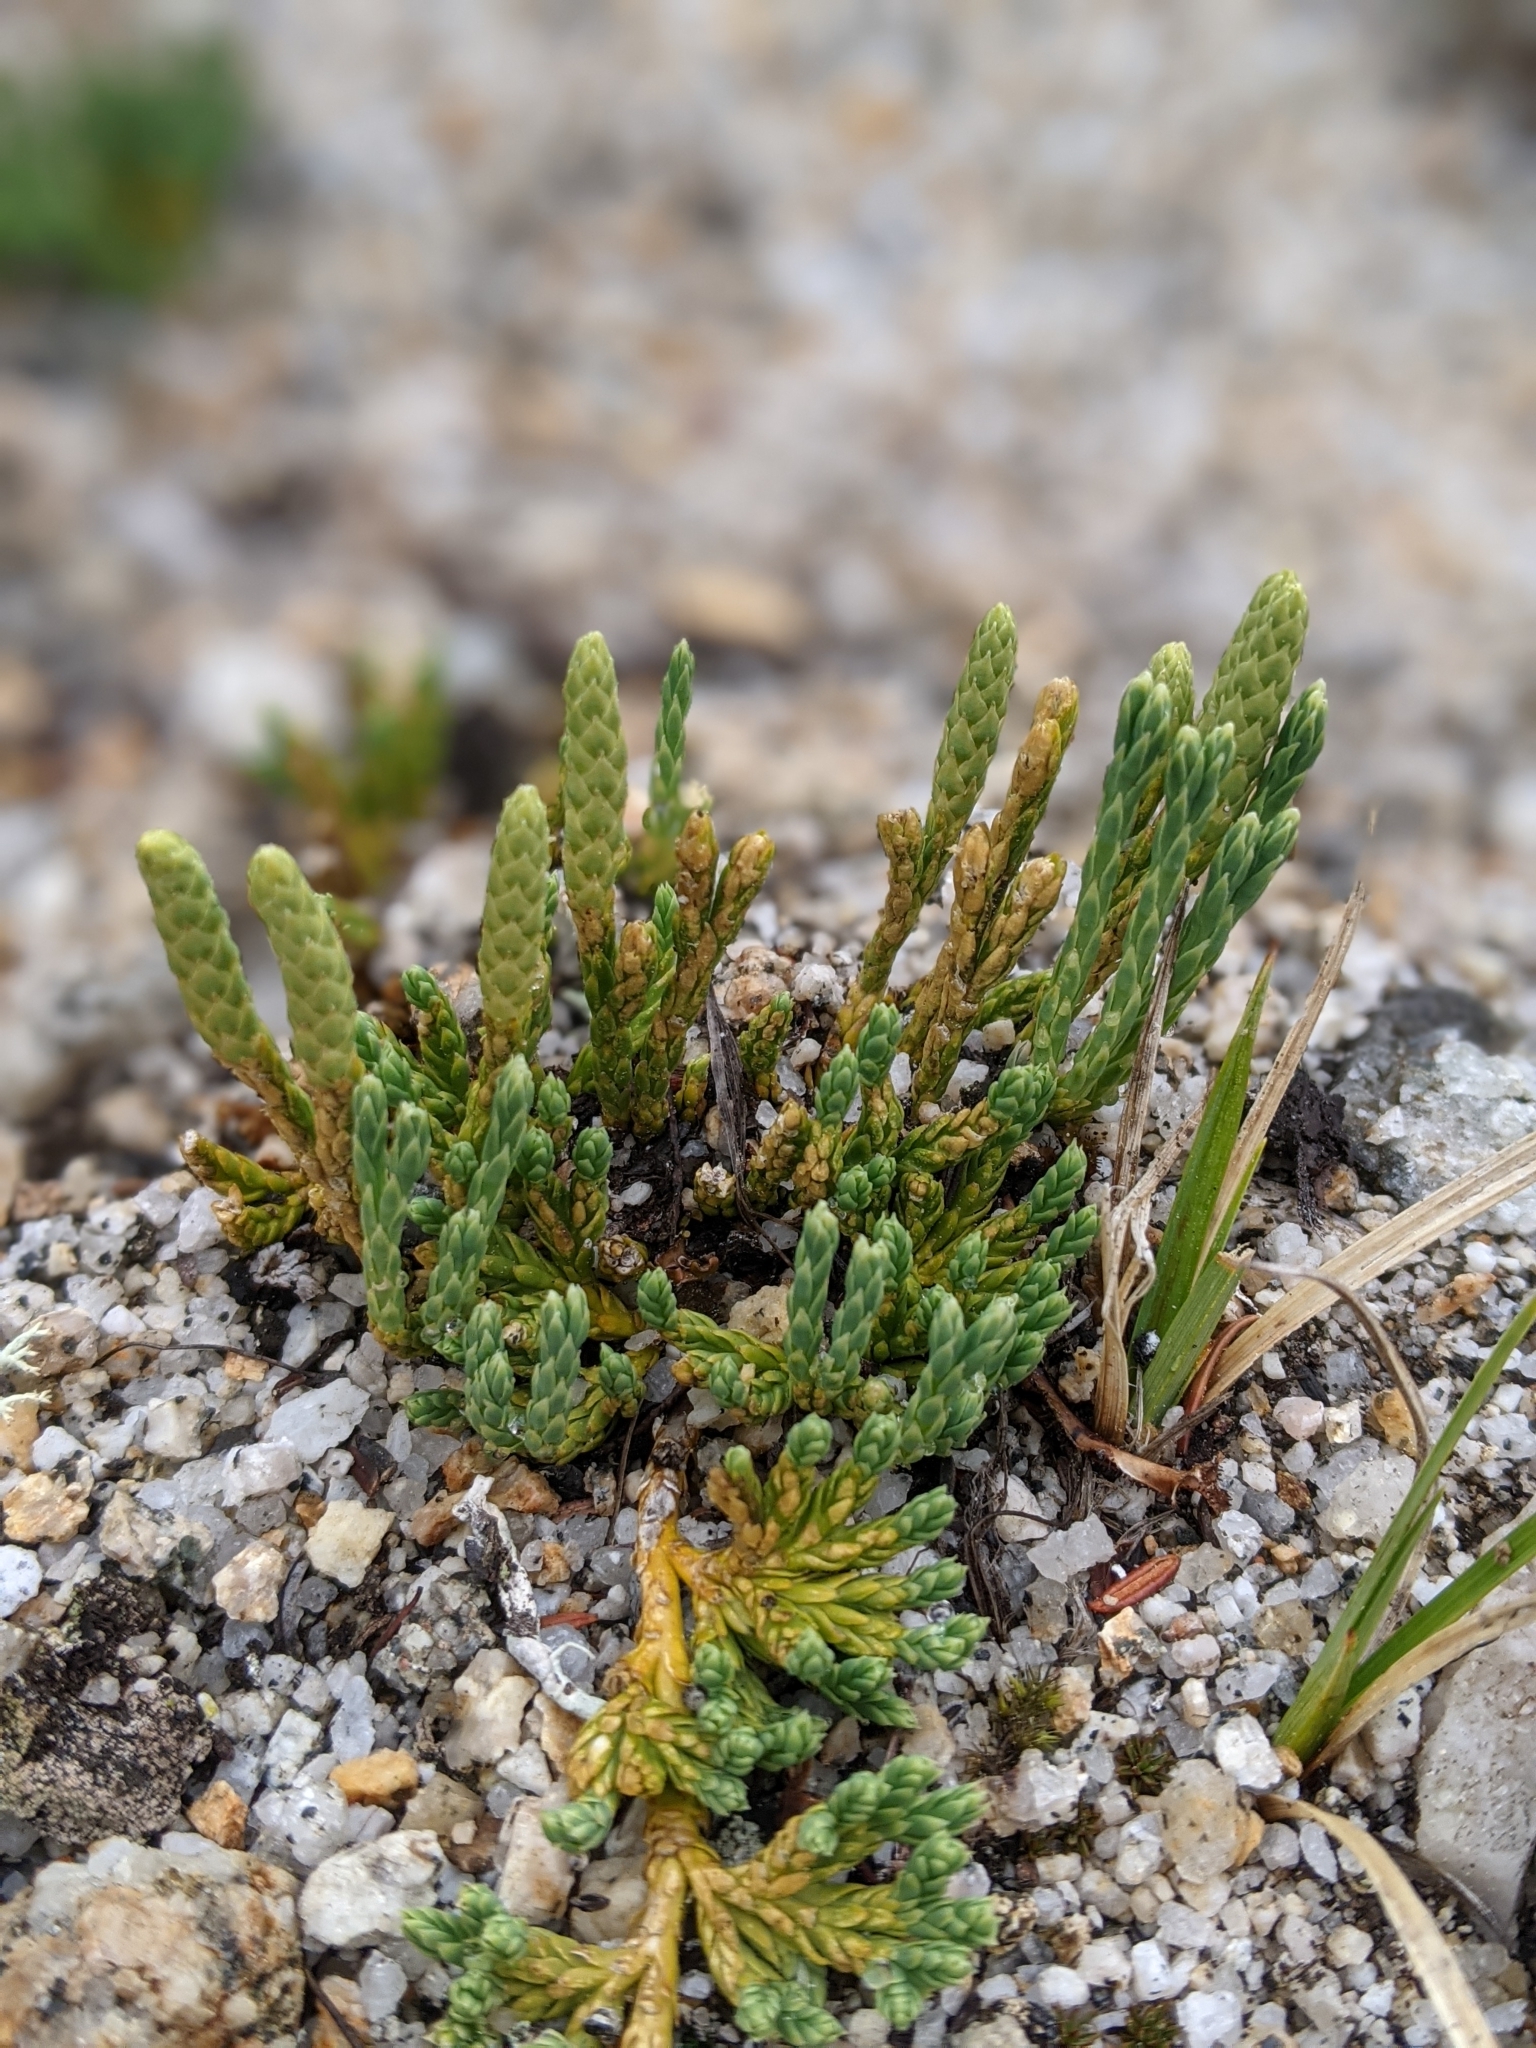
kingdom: Plantae
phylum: Tracheophyta
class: Lycopodiopsida
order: Lycopodiales
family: Lycopodiaceae
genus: Diphasiastrum
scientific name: Diphasiastrum alpinum
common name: Alpine clubmoss
